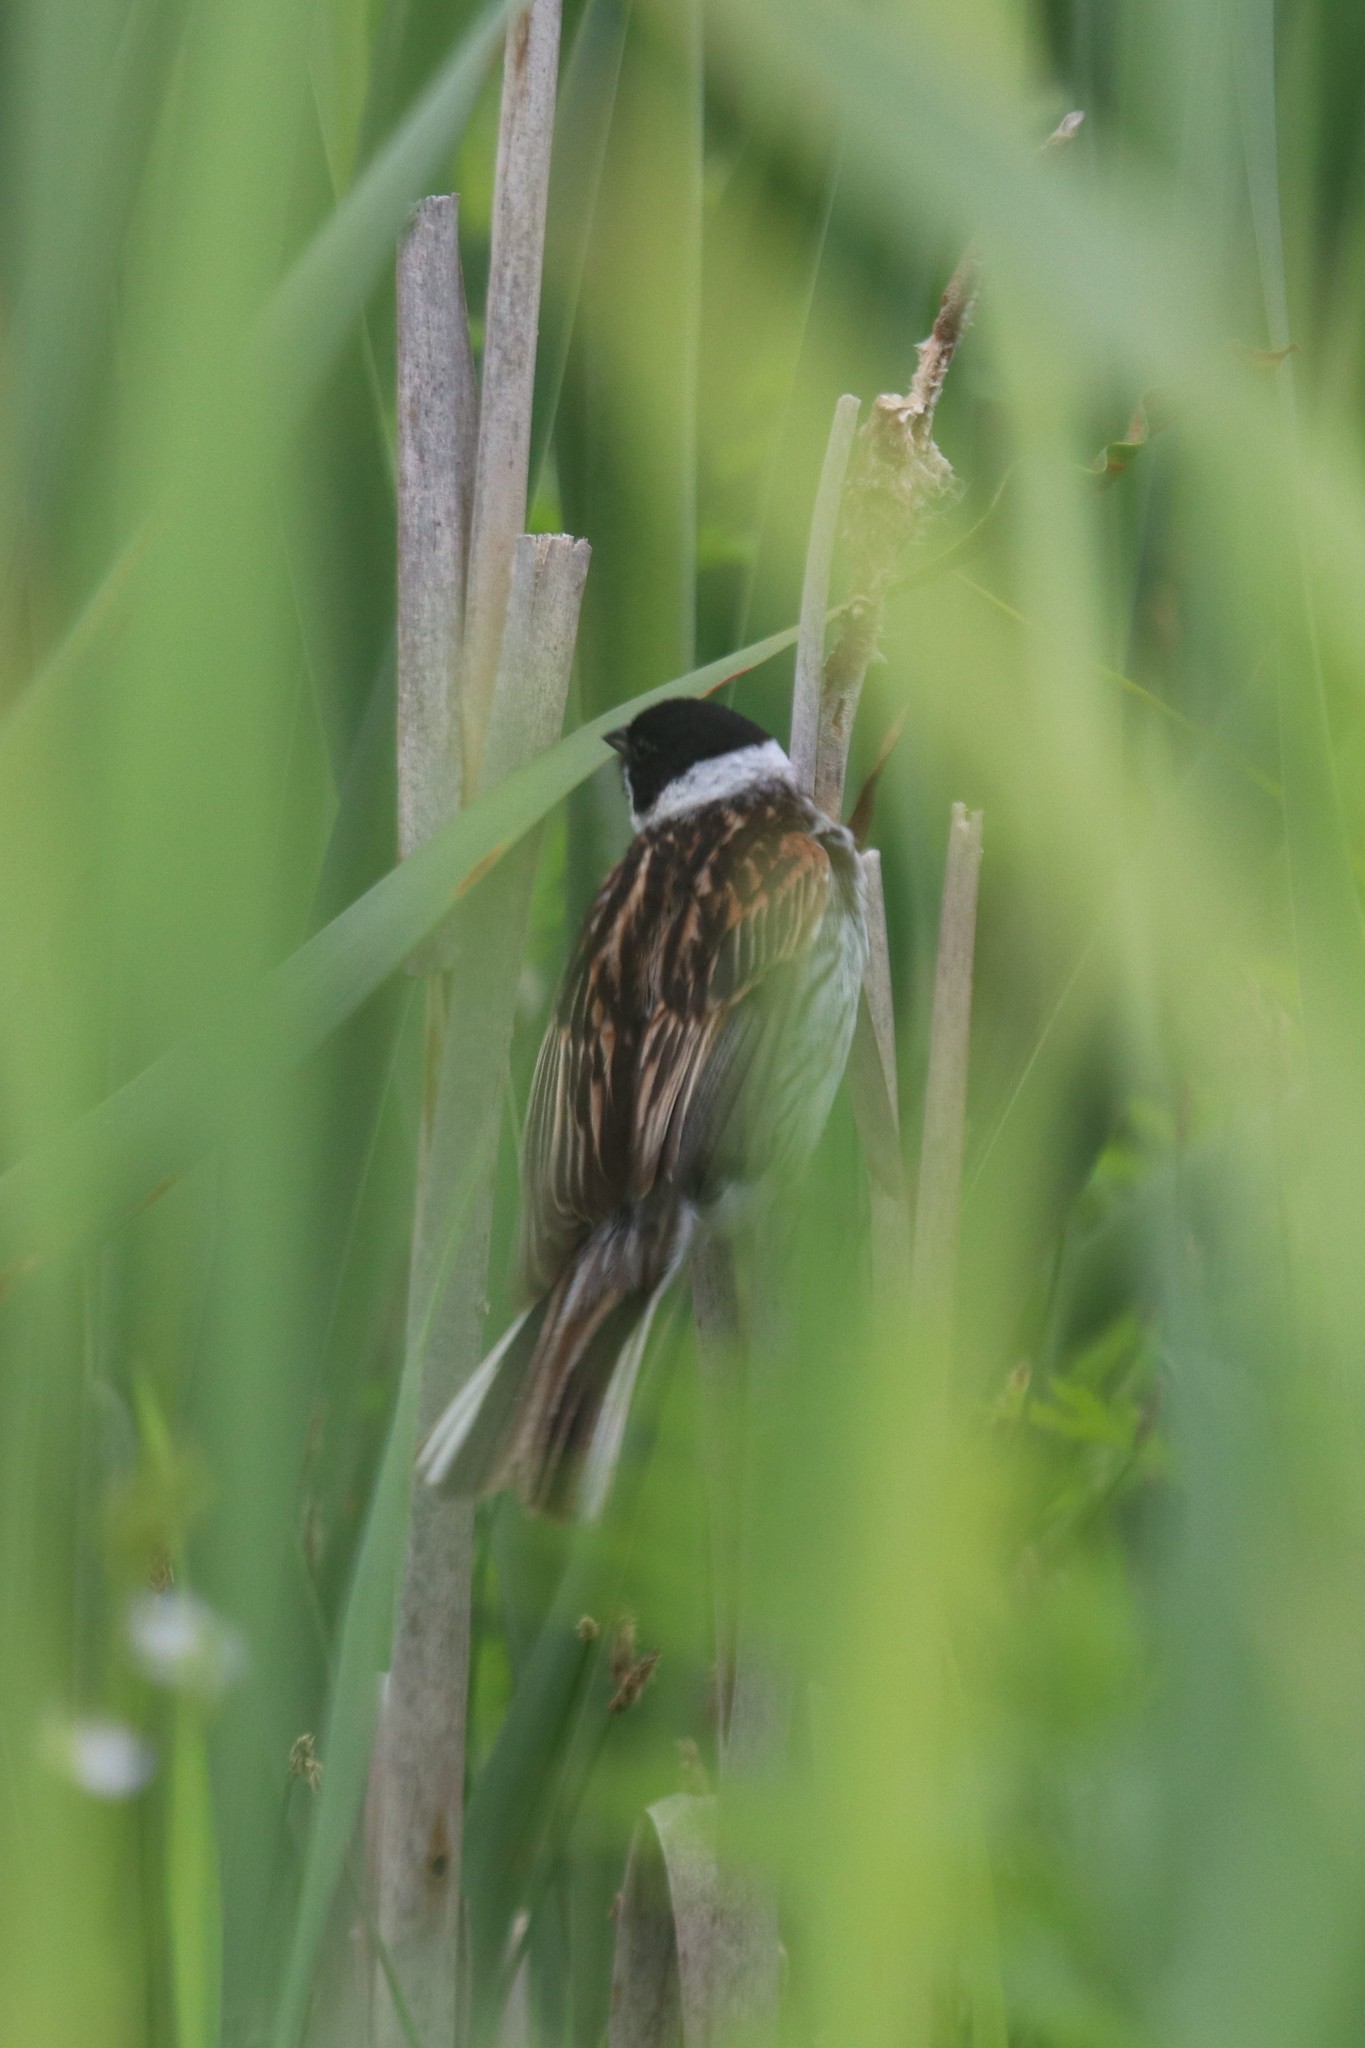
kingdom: Animalia
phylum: Chordata
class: Aves
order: Passeriformes
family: Emberizidae
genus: Emberiza
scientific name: Emberiza schoeniclus
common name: Reed bunting
